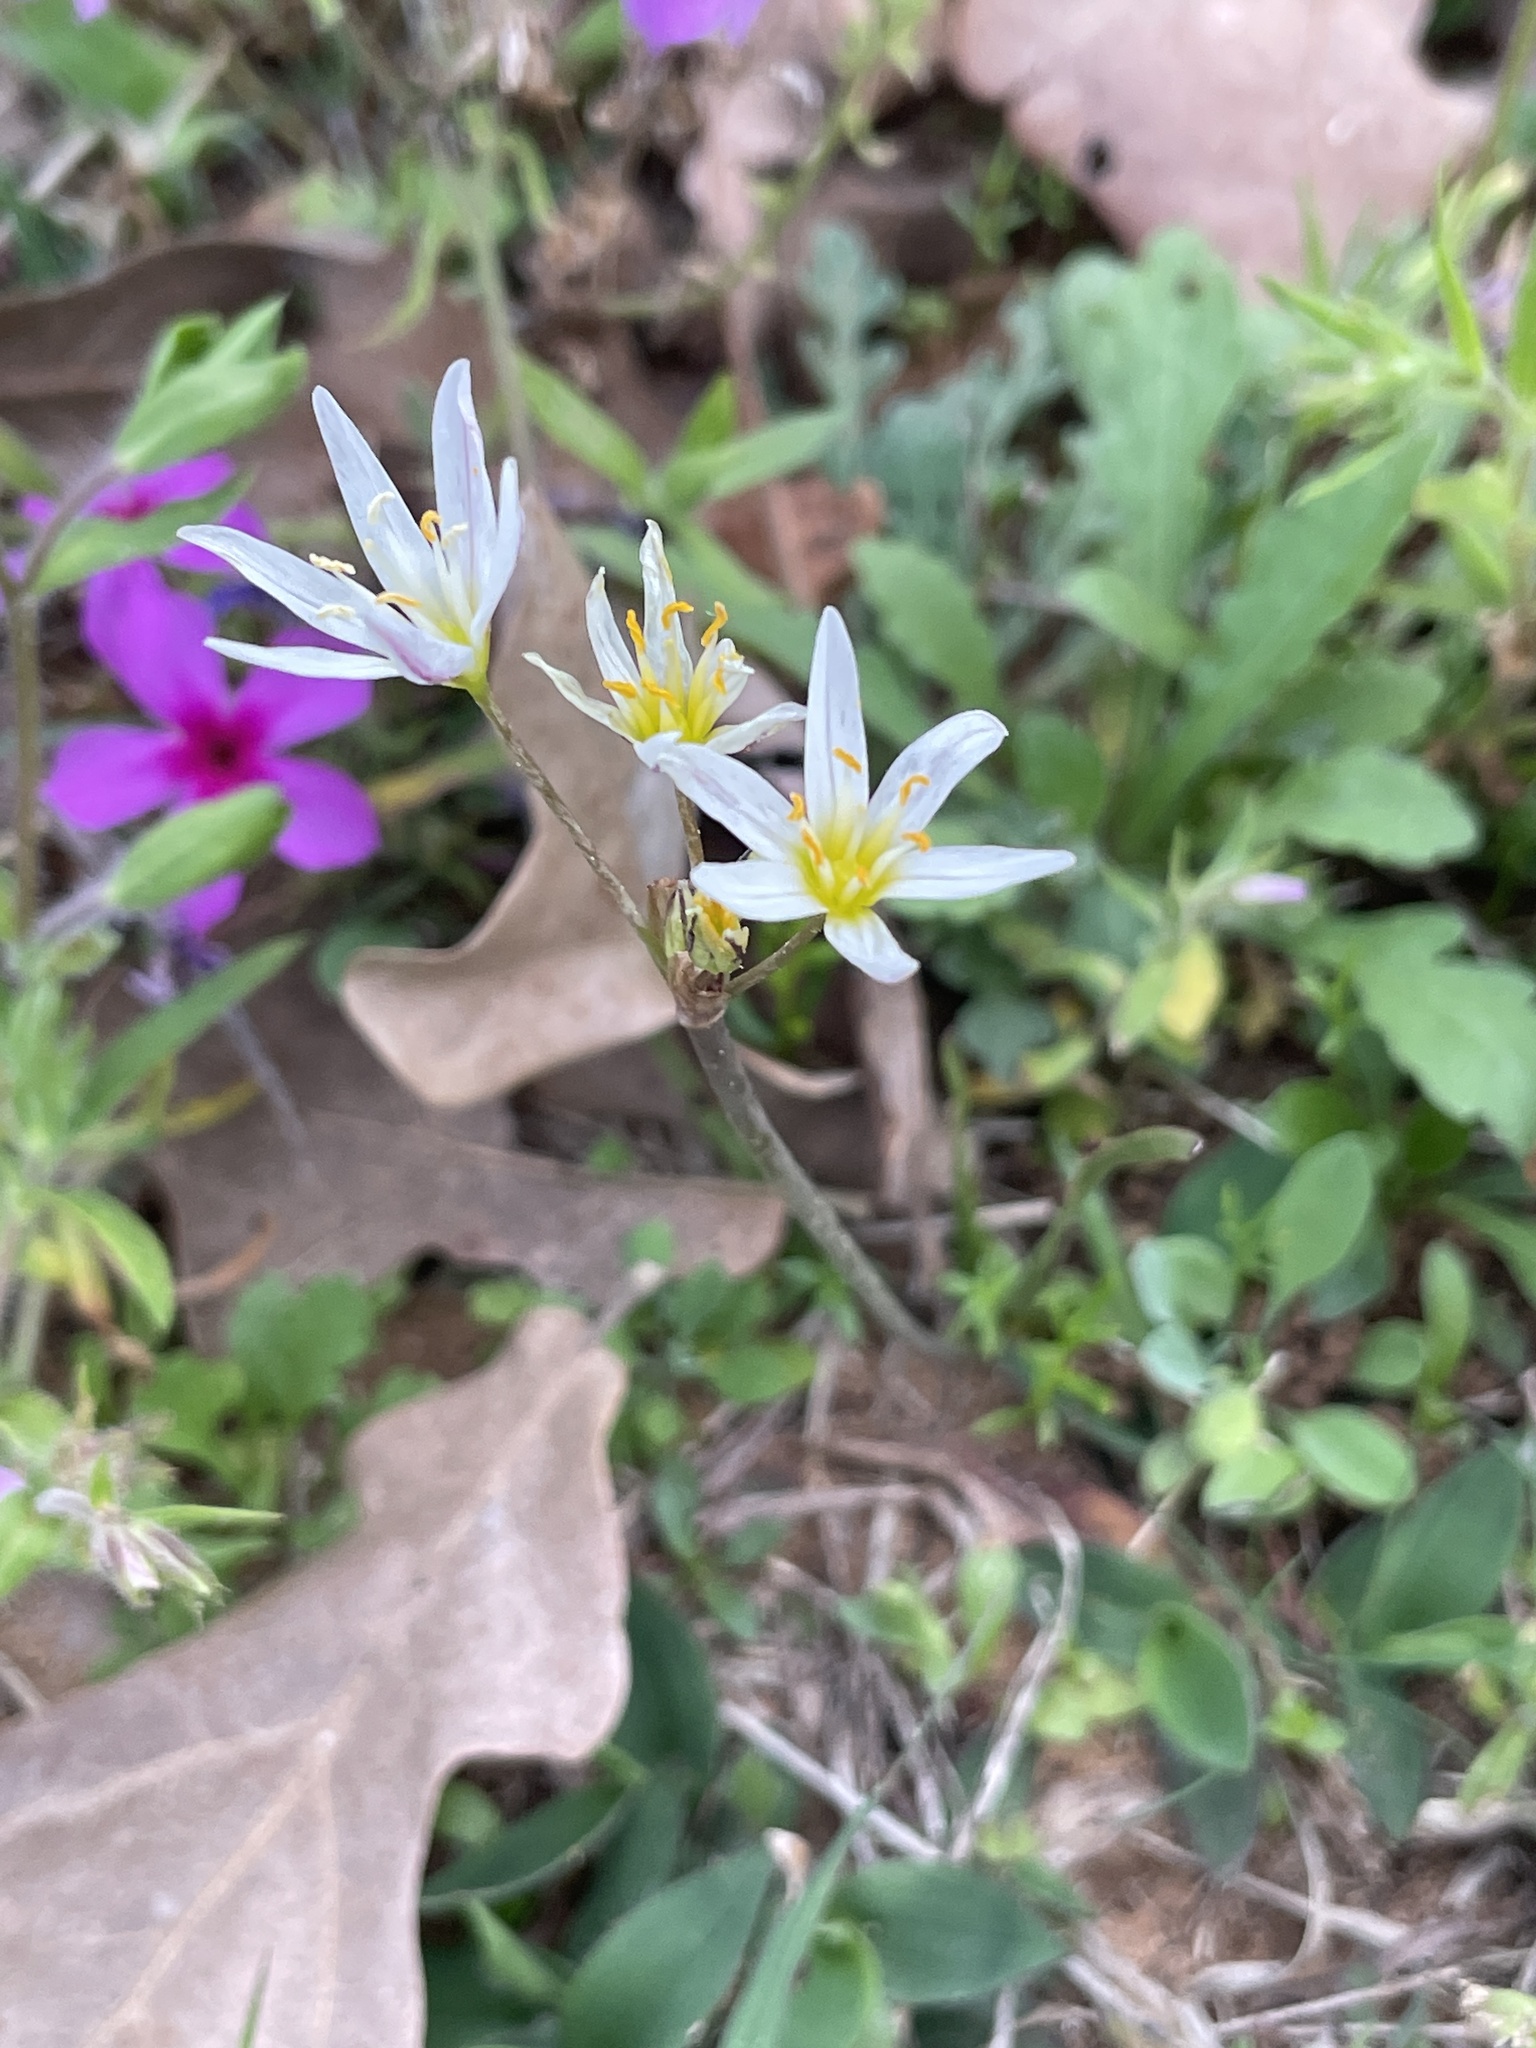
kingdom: Plantae
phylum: Tracheophyta
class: Liliopsida
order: Asparagales
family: Amaryllidaceae
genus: Nothoscordum
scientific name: Nothoscordum bivalve
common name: Crow-poison
